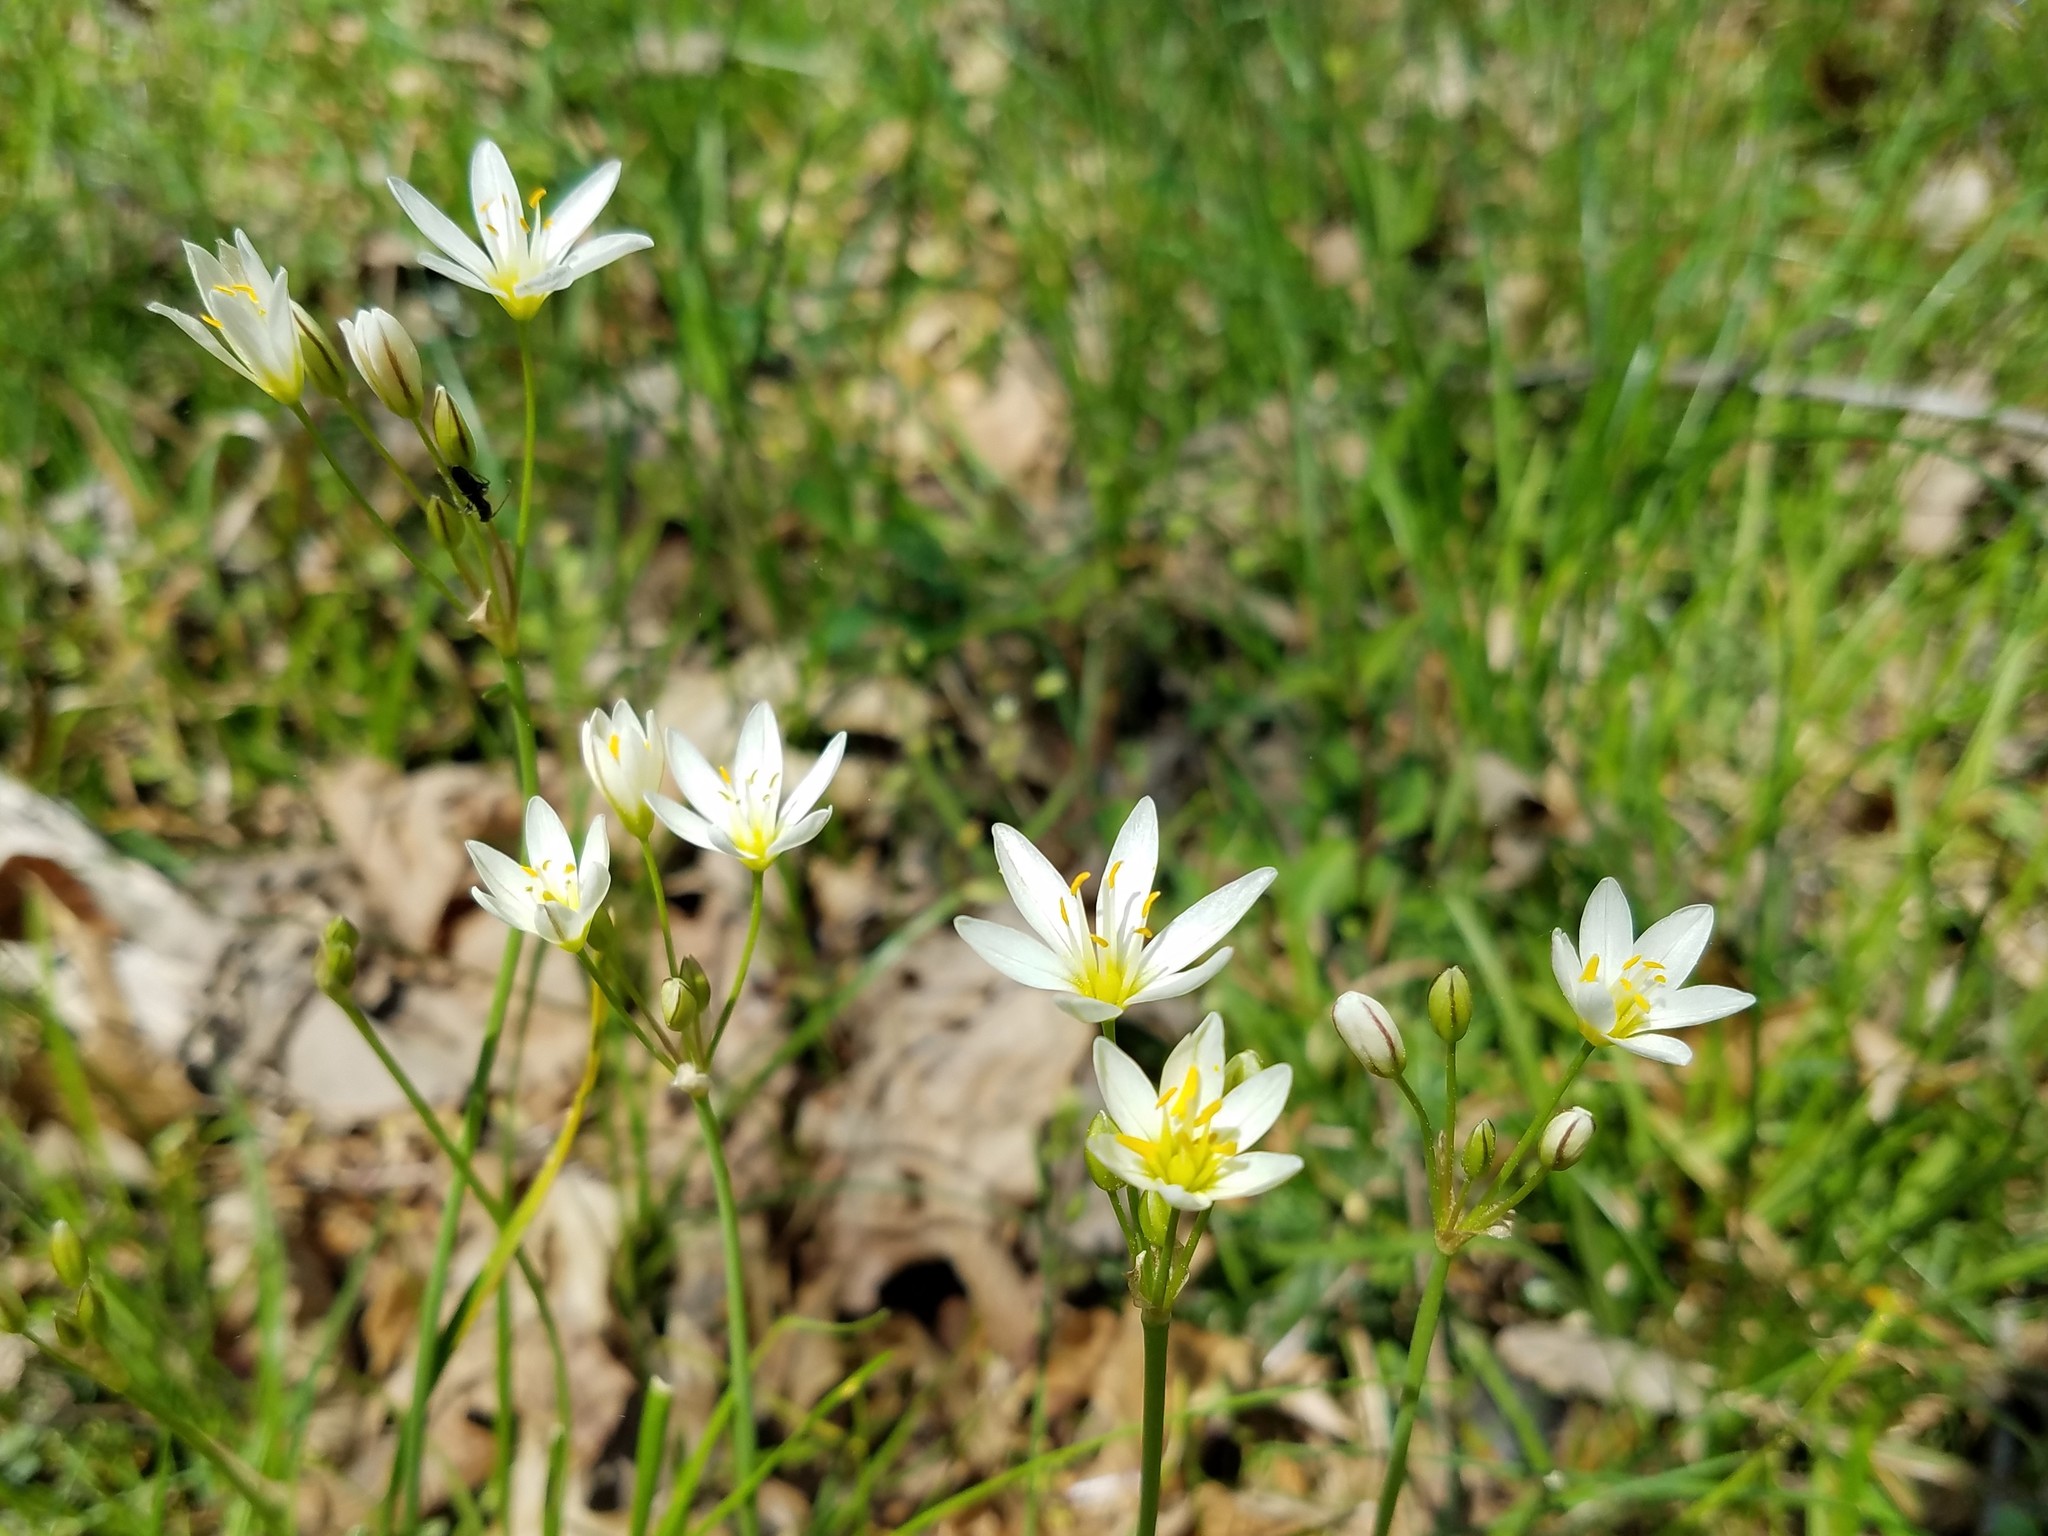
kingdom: Plantae
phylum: Tracheophyta
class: Liliopsida
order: Asparagales
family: Amaryllidaceae
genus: Nothoscordum
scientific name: Nothoscordum bivalve
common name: Crow-poison
